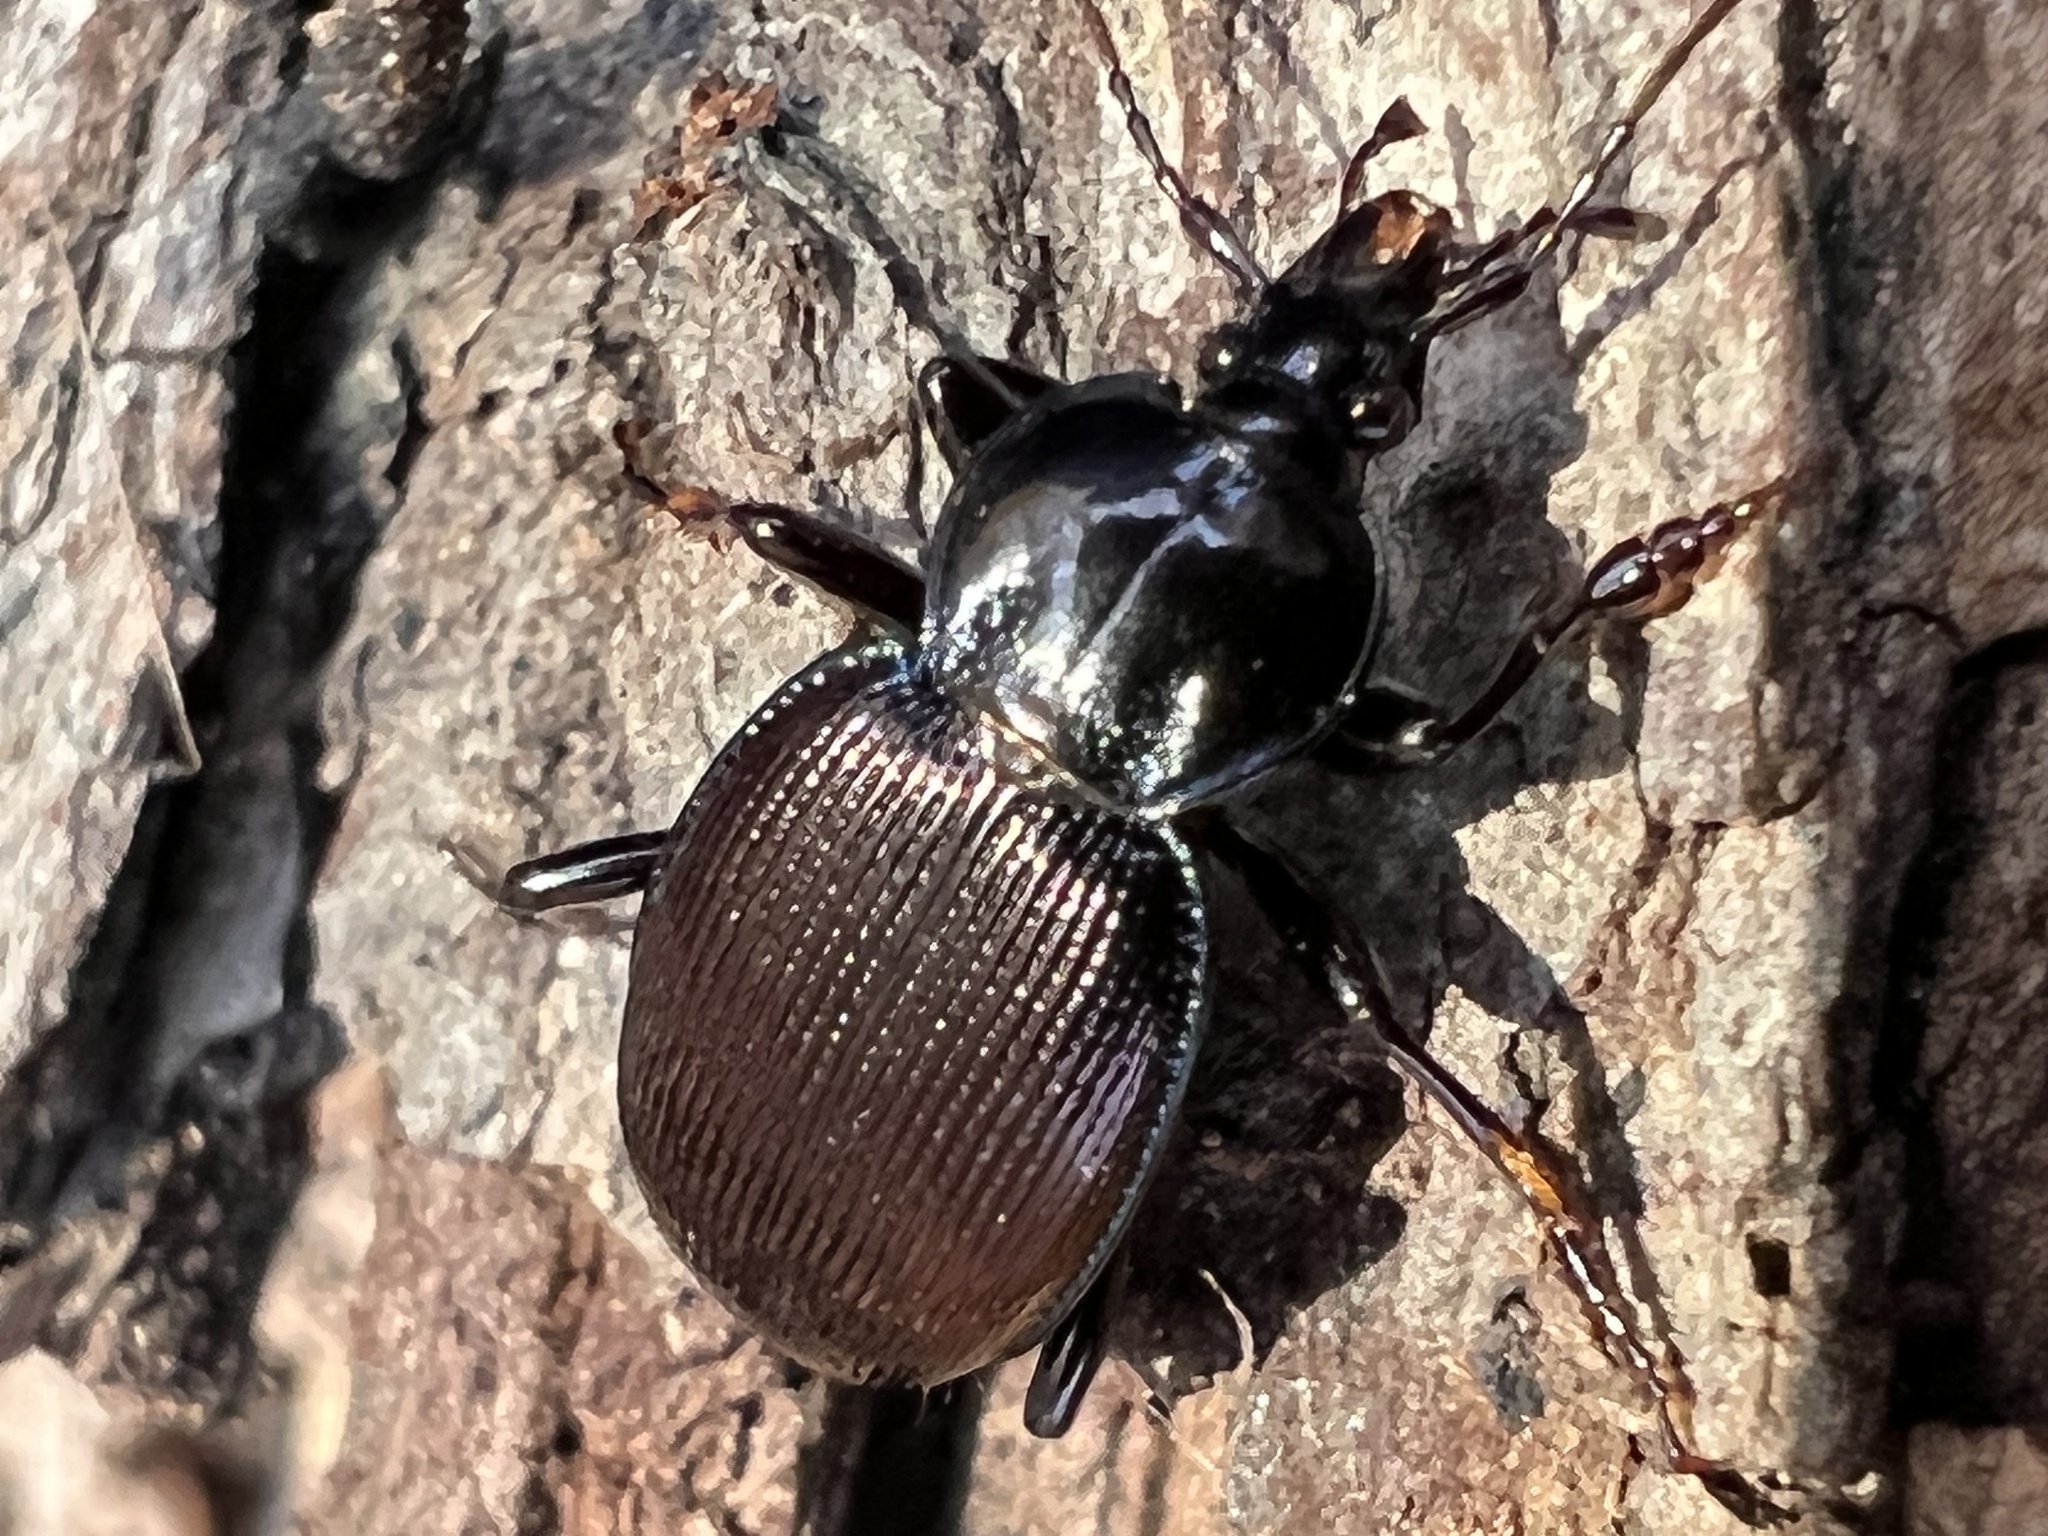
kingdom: Animalia
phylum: Arthropoda
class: Insecta
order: Coleoptera
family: Carabidae
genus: Sphaeroderus
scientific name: Sphaeroderus stenostomus
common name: Small snail-eating ground beetle
